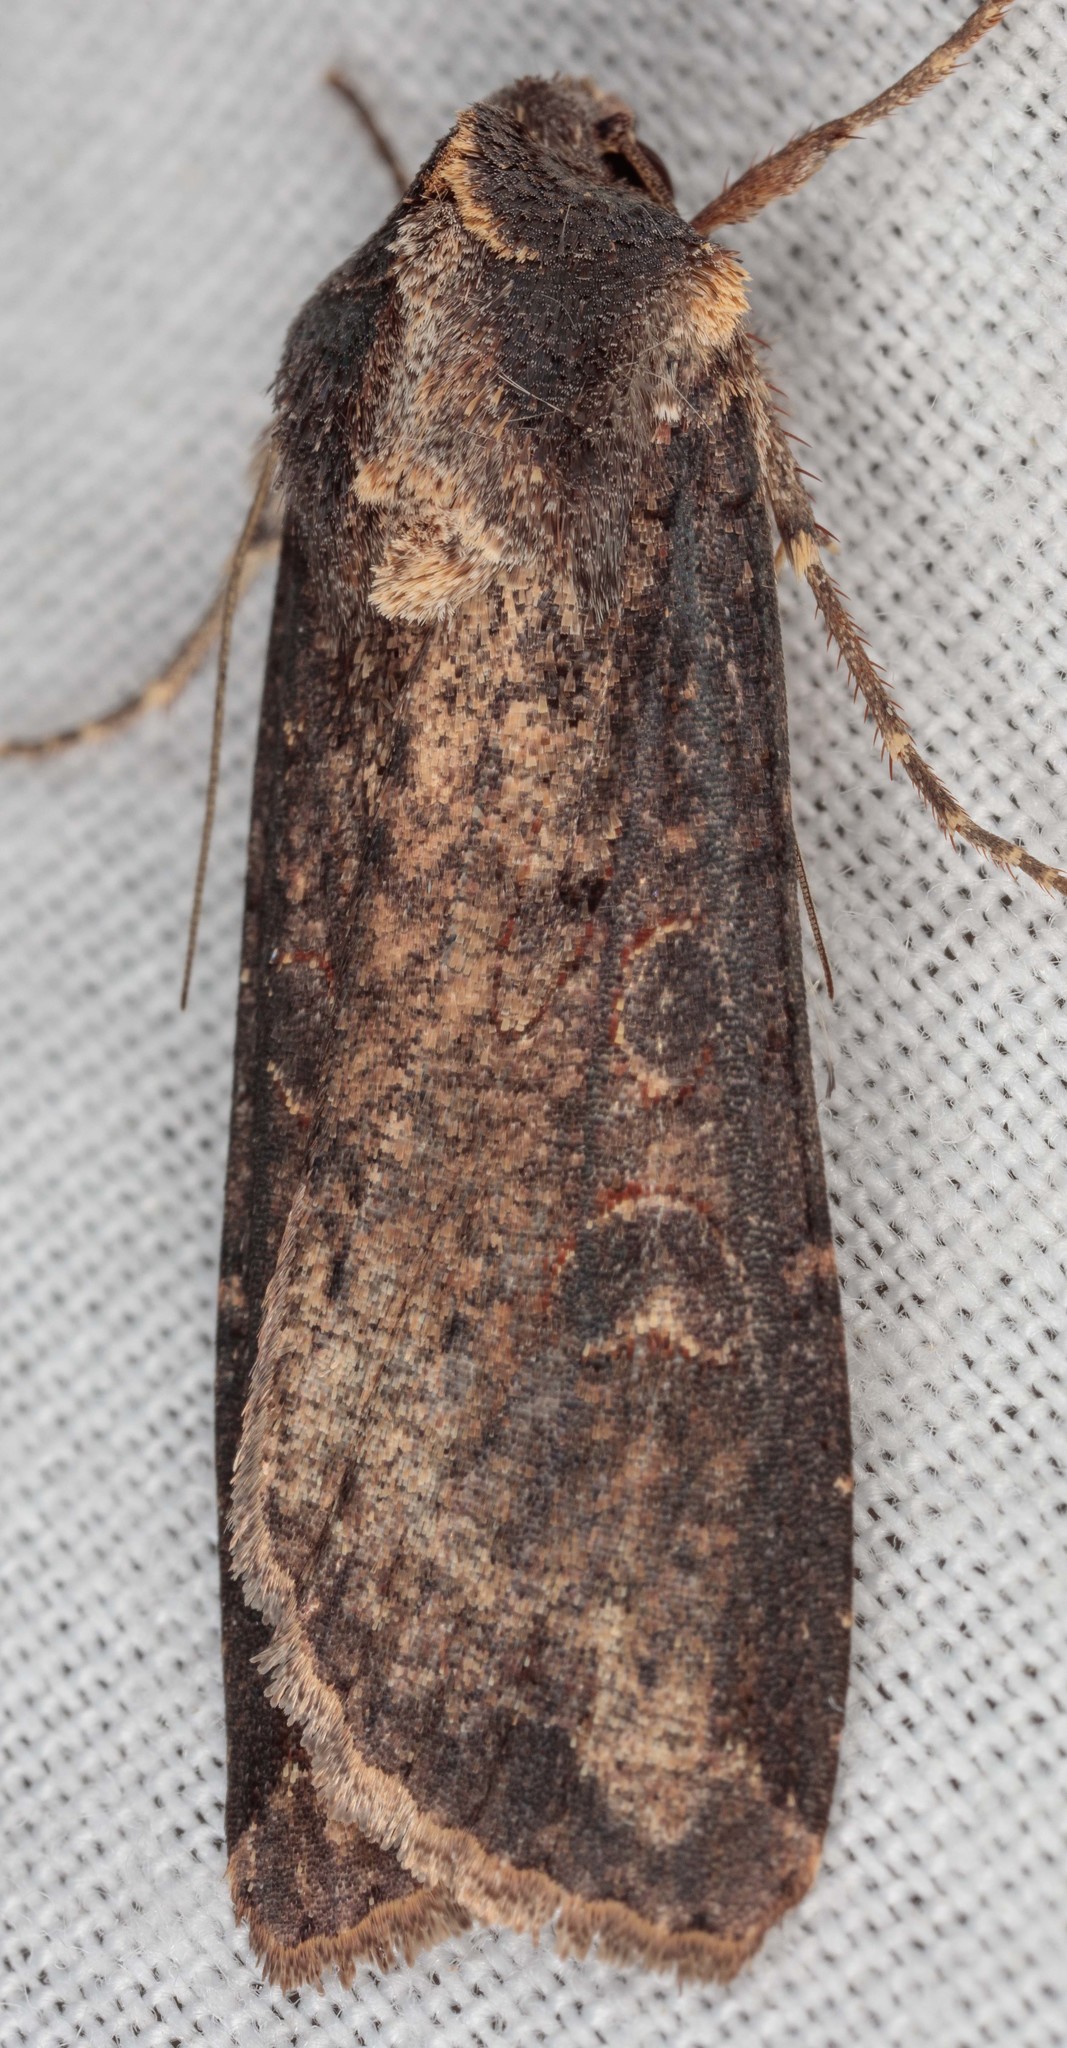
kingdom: Animalia
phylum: Arthropoda
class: Insecta
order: Lepidoptera
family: Noctuidae
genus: Peridroma
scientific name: Peridroma saucia
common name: Pearly underwing
